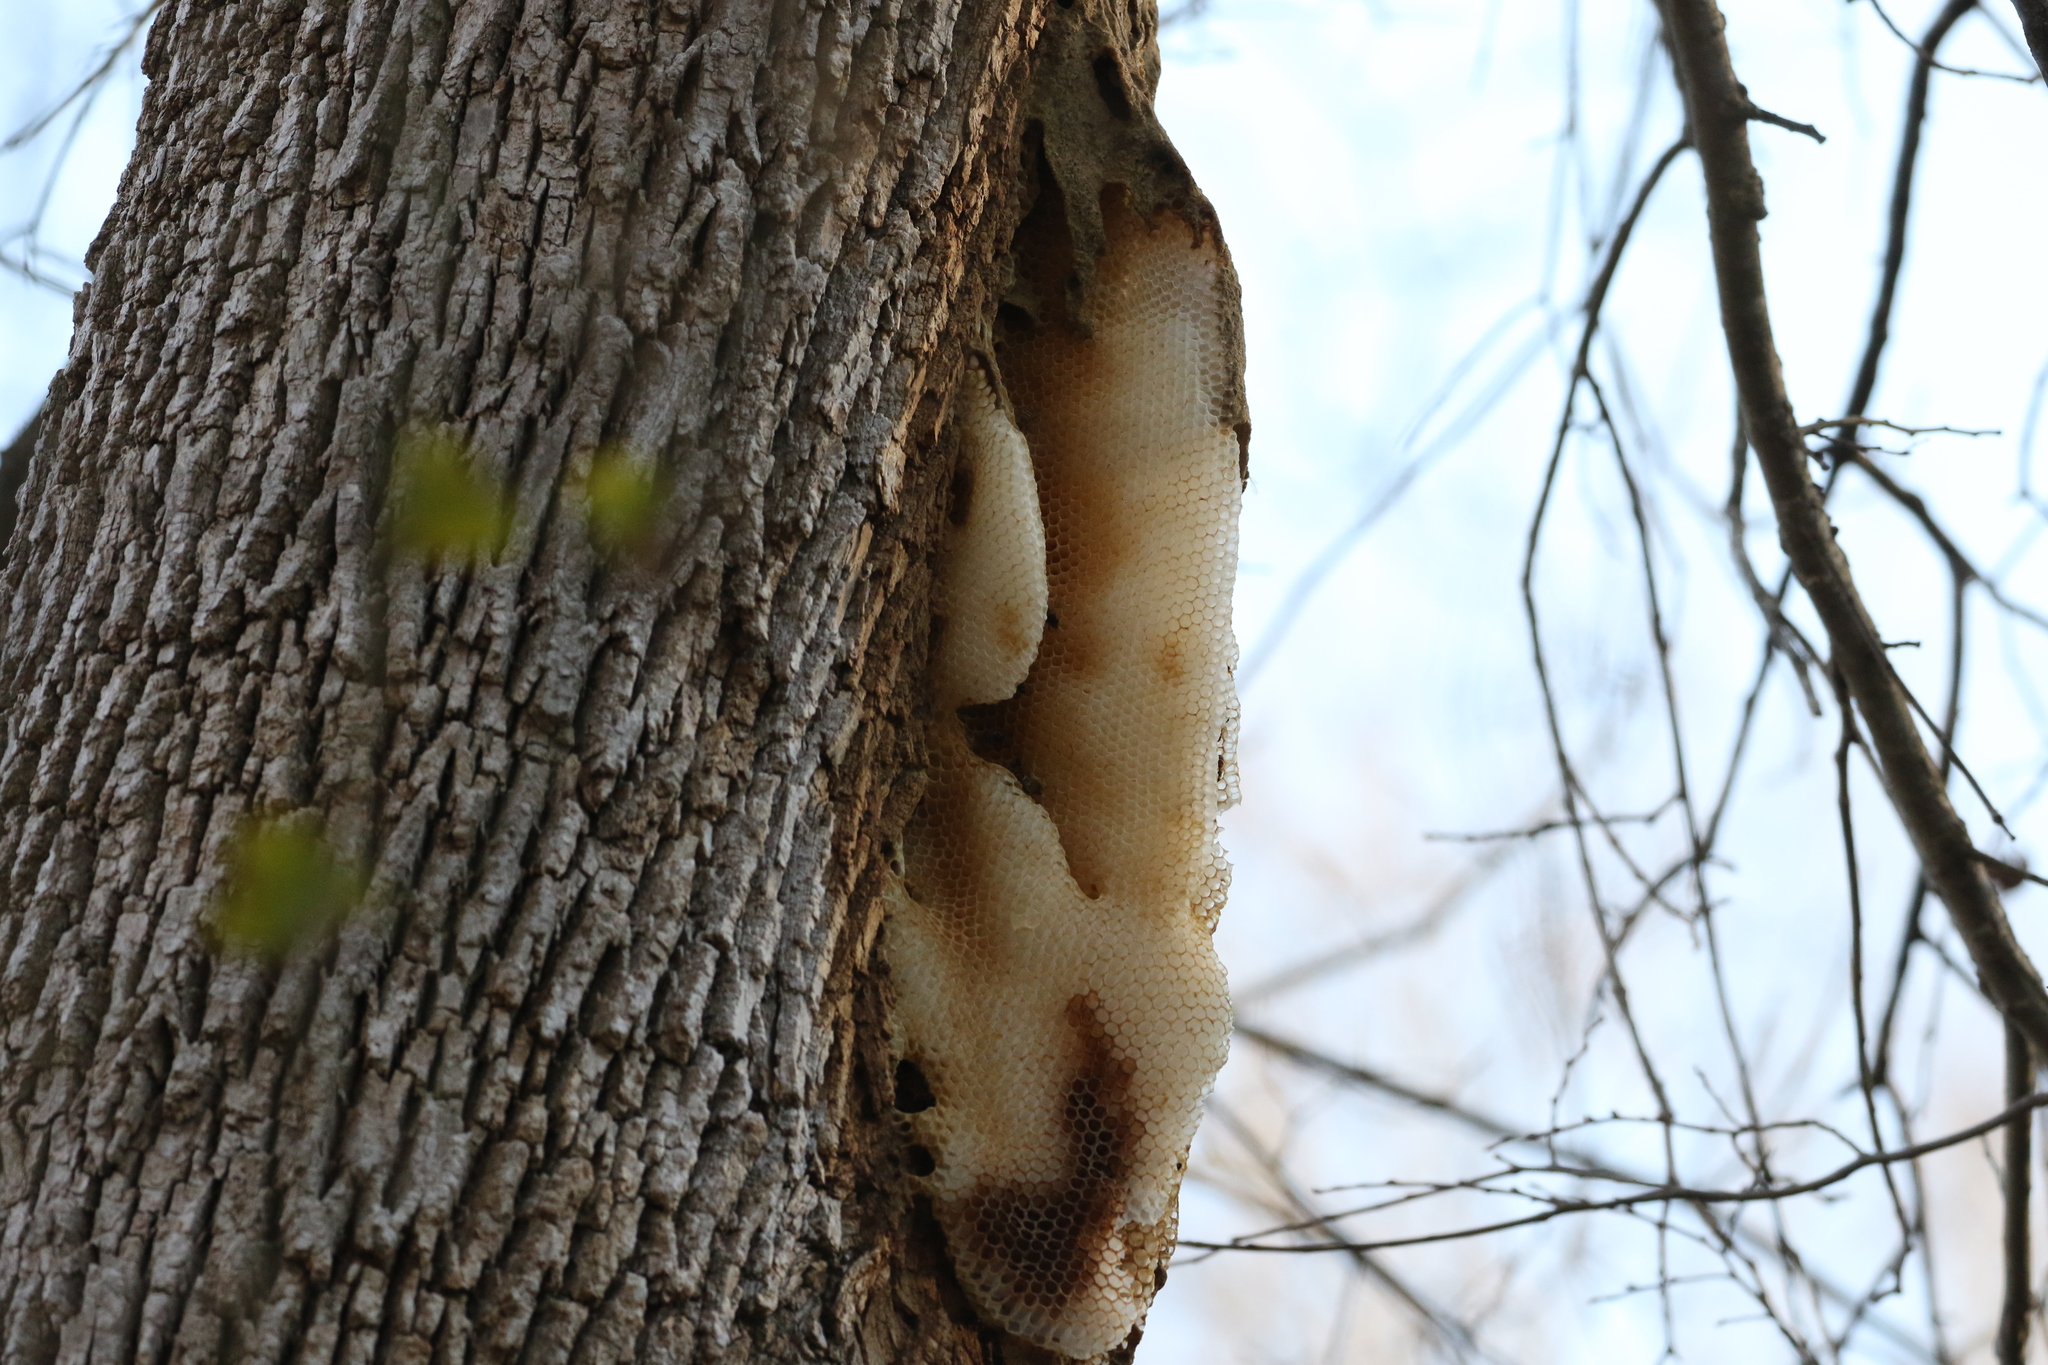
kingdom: Animalia
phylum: Arthropoda
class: Insecta
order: Hymenoptera
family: Apidae
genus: Apis
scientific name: Apis mellifera
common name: Honey bee
